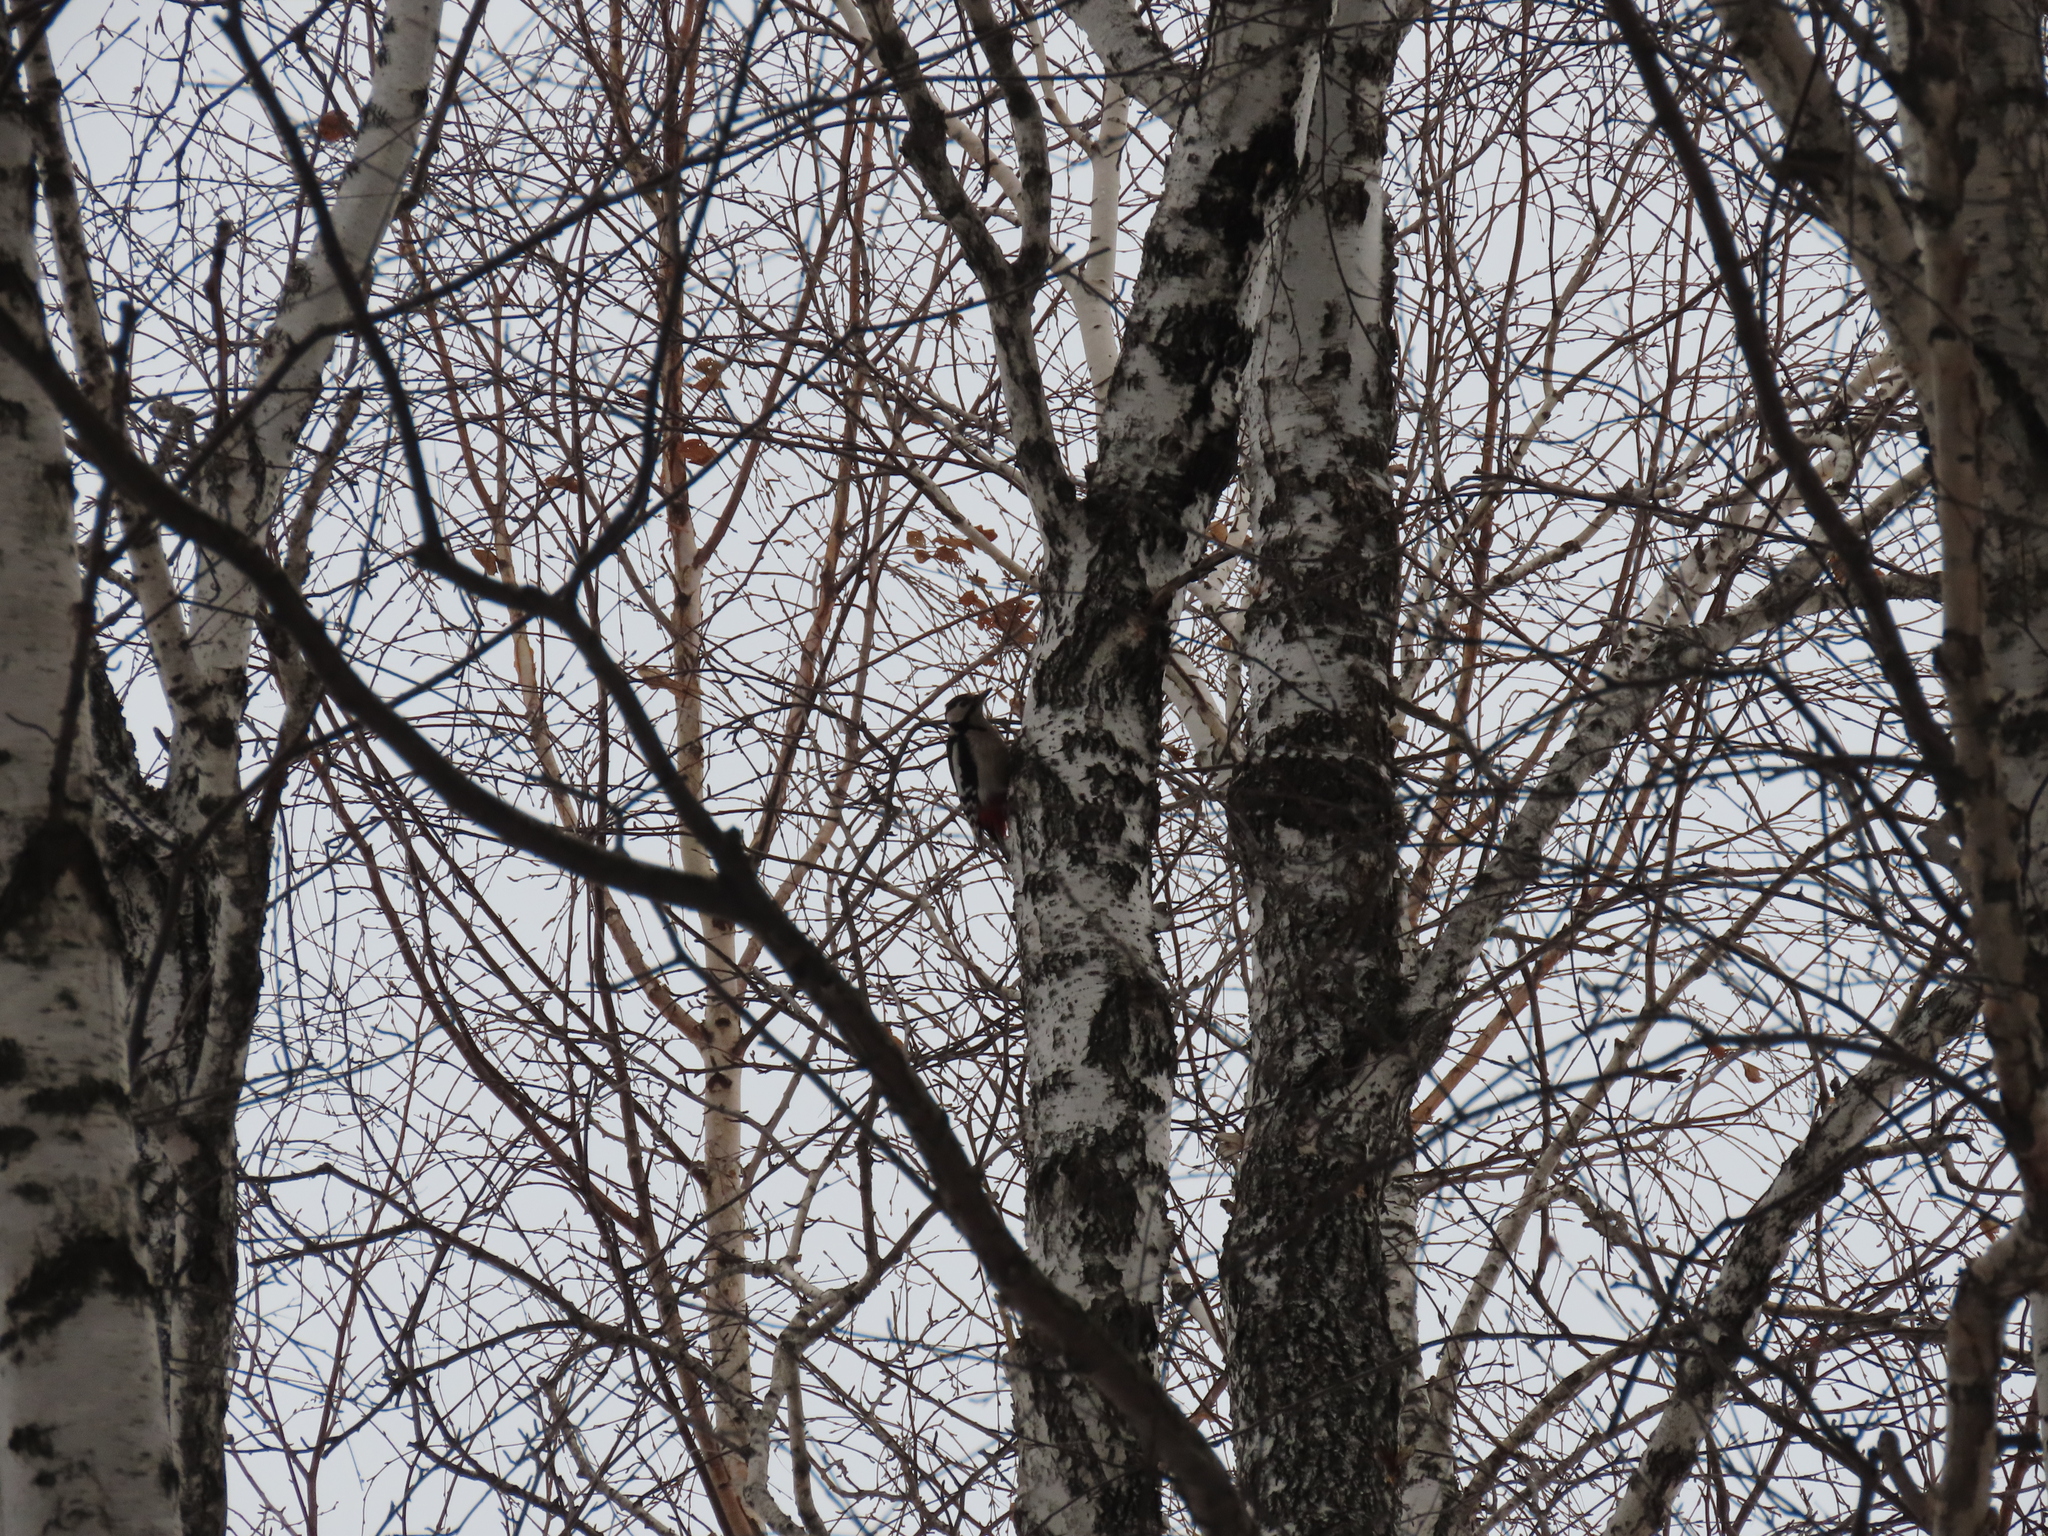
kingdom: Animalia
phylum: Chordata
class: Aves
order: Piciformes
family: Picidae
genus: Dendrocopos
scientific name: Dendrocopos major
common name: Great spotted woodpecker
